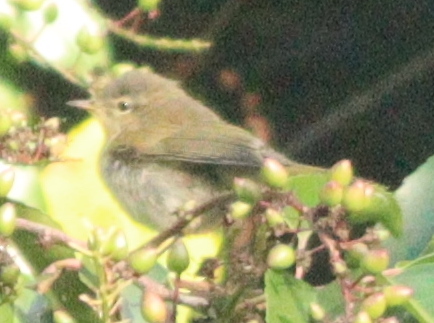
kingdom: Animalia
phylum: Chordata
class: Aves
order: Passeriformes
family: Phylloscopidae
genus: Phylloscopus
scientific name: Phylloscopus collybita
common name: Common chiffchaff
